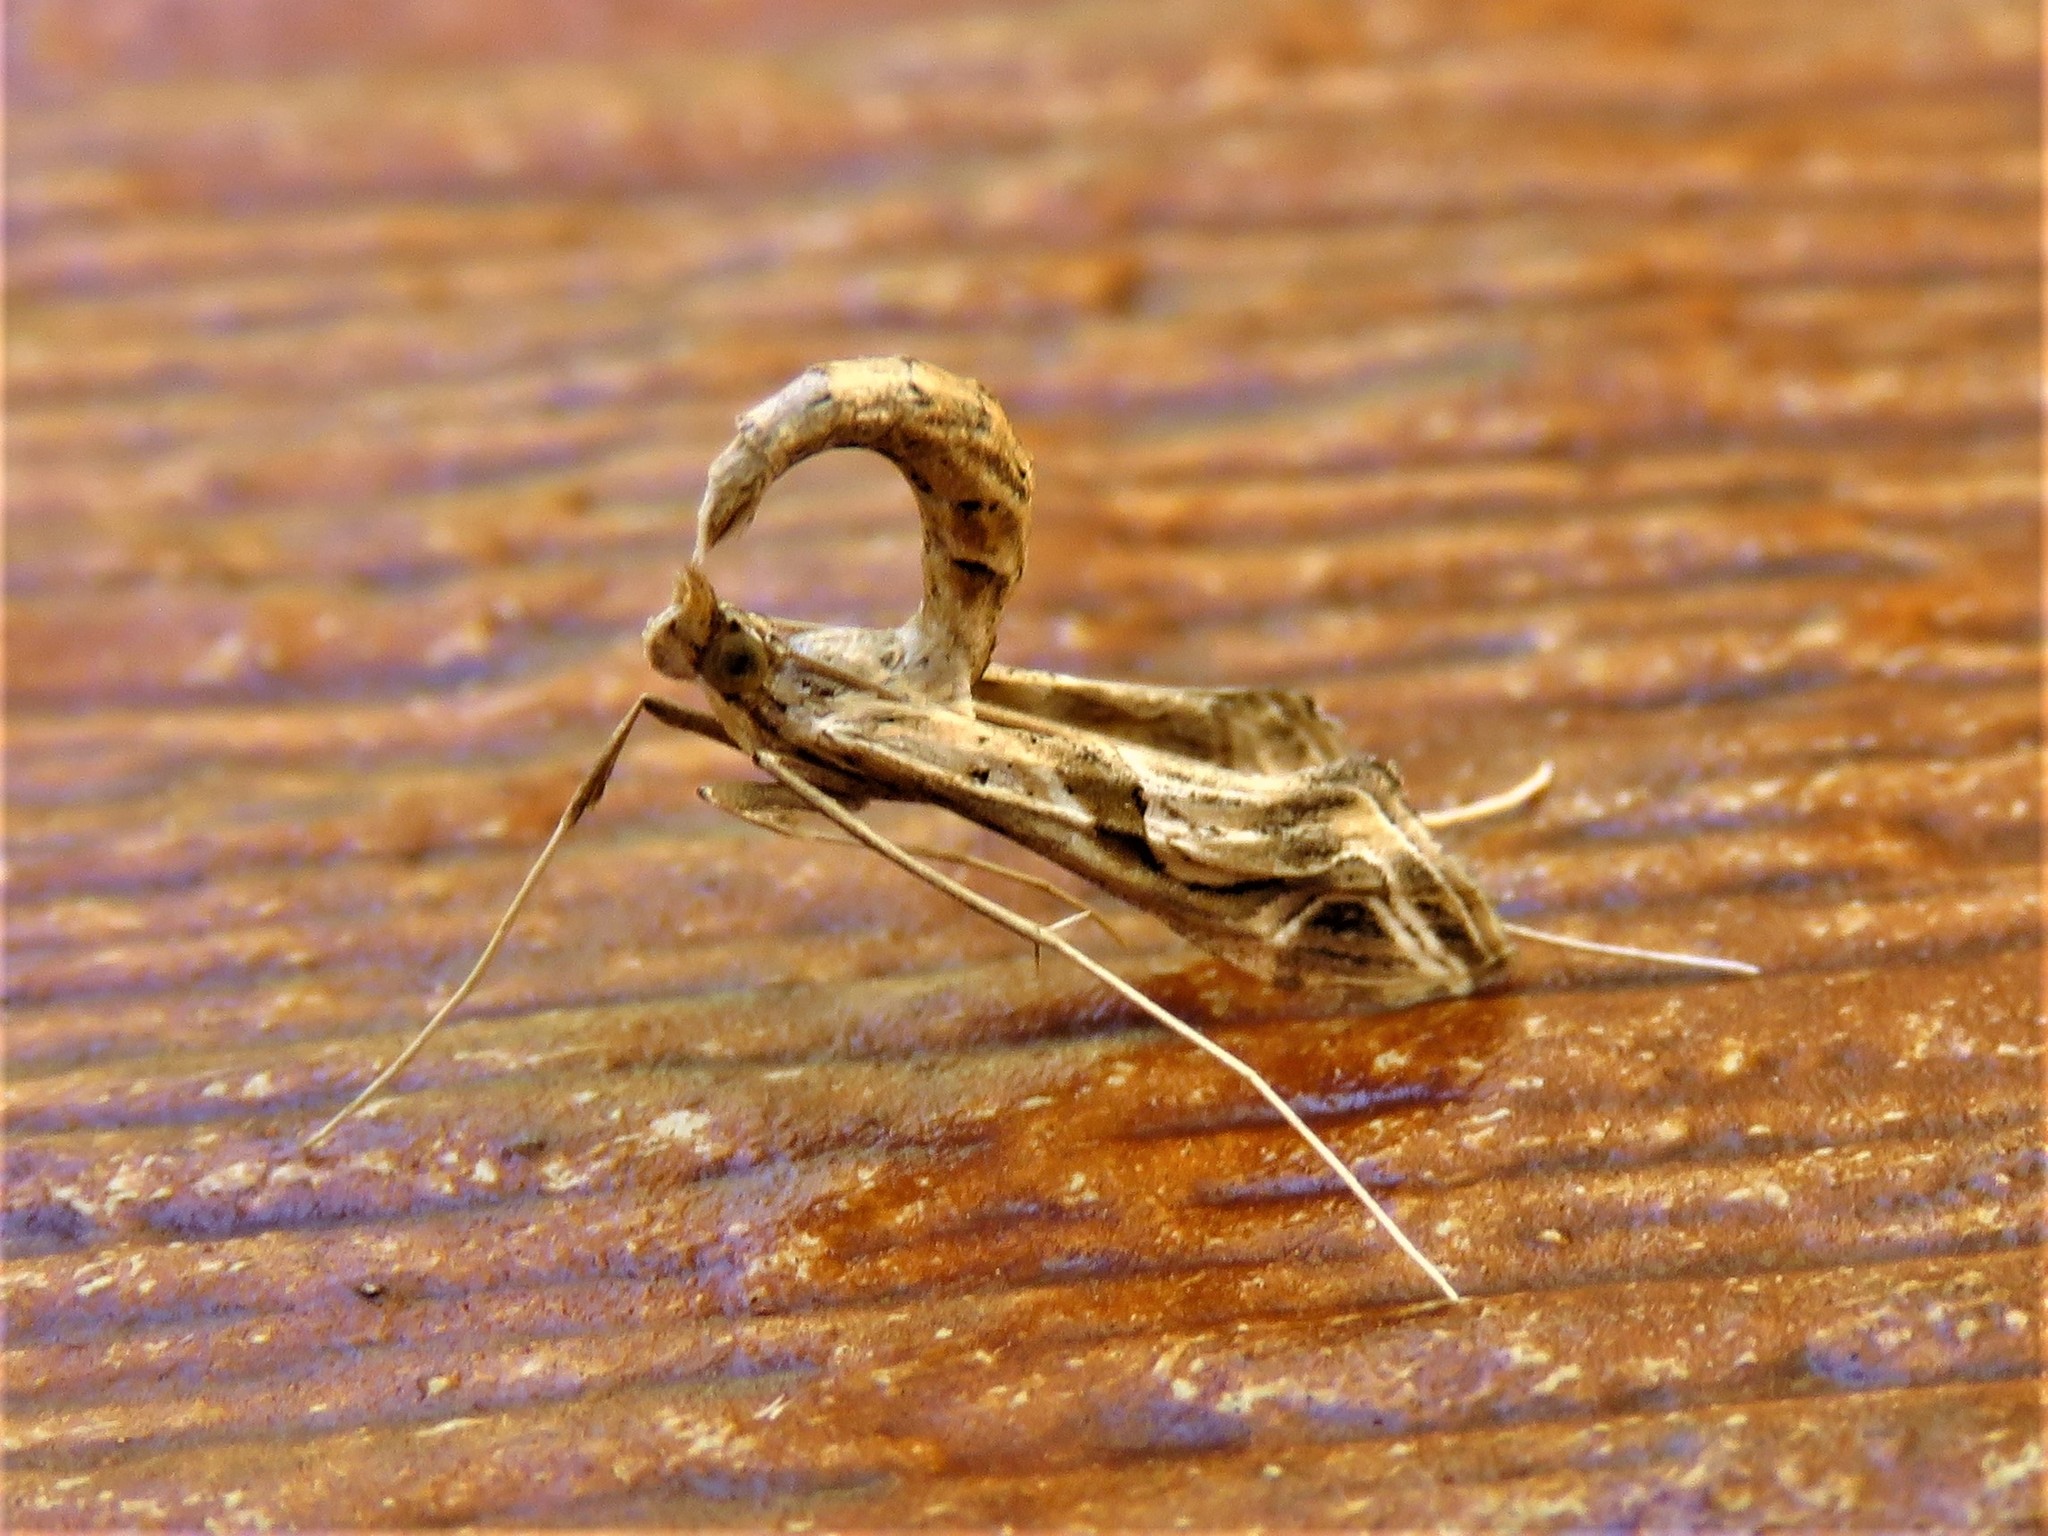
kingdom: Animalia
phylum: Arthropoda
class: Insecta
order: Lepidoptera
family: Crambidae
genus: Lineodes
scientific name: Lineodes integra
